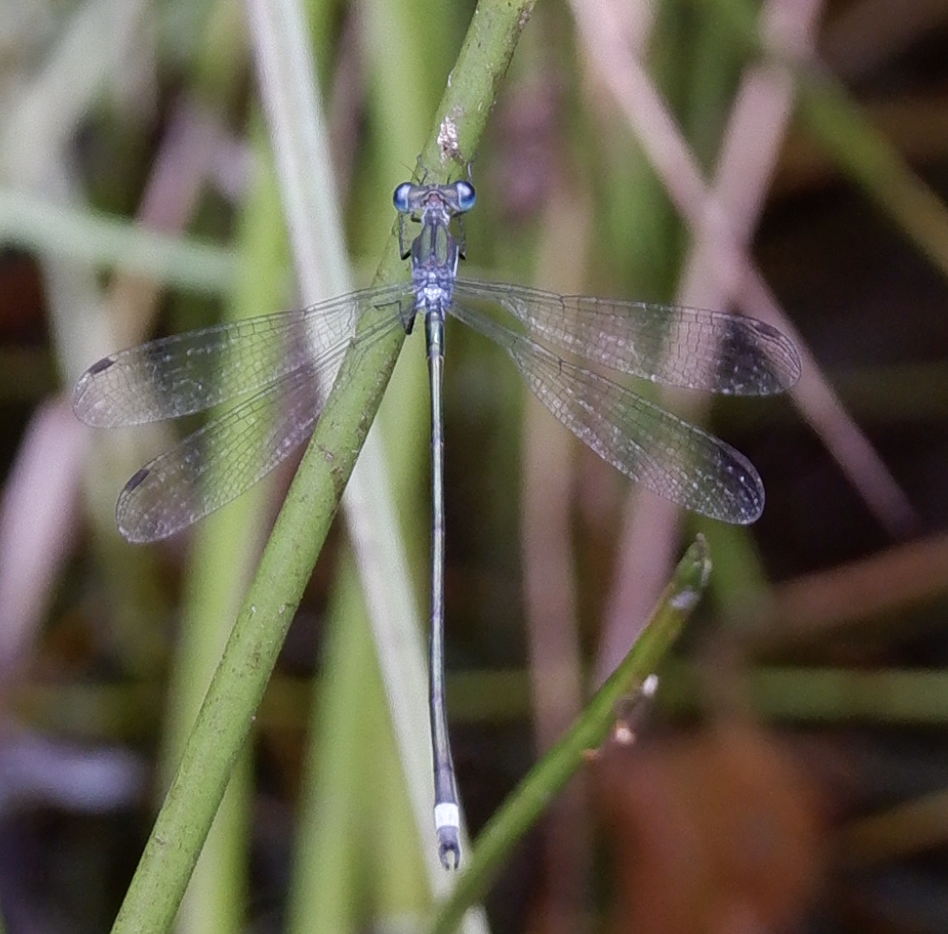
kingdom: Animalia
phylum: Arthropoda
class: Insecta
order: Odonata
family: Lestidae
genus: Lestes
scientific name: Lestes vigilax
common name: Swamp spreadwing
